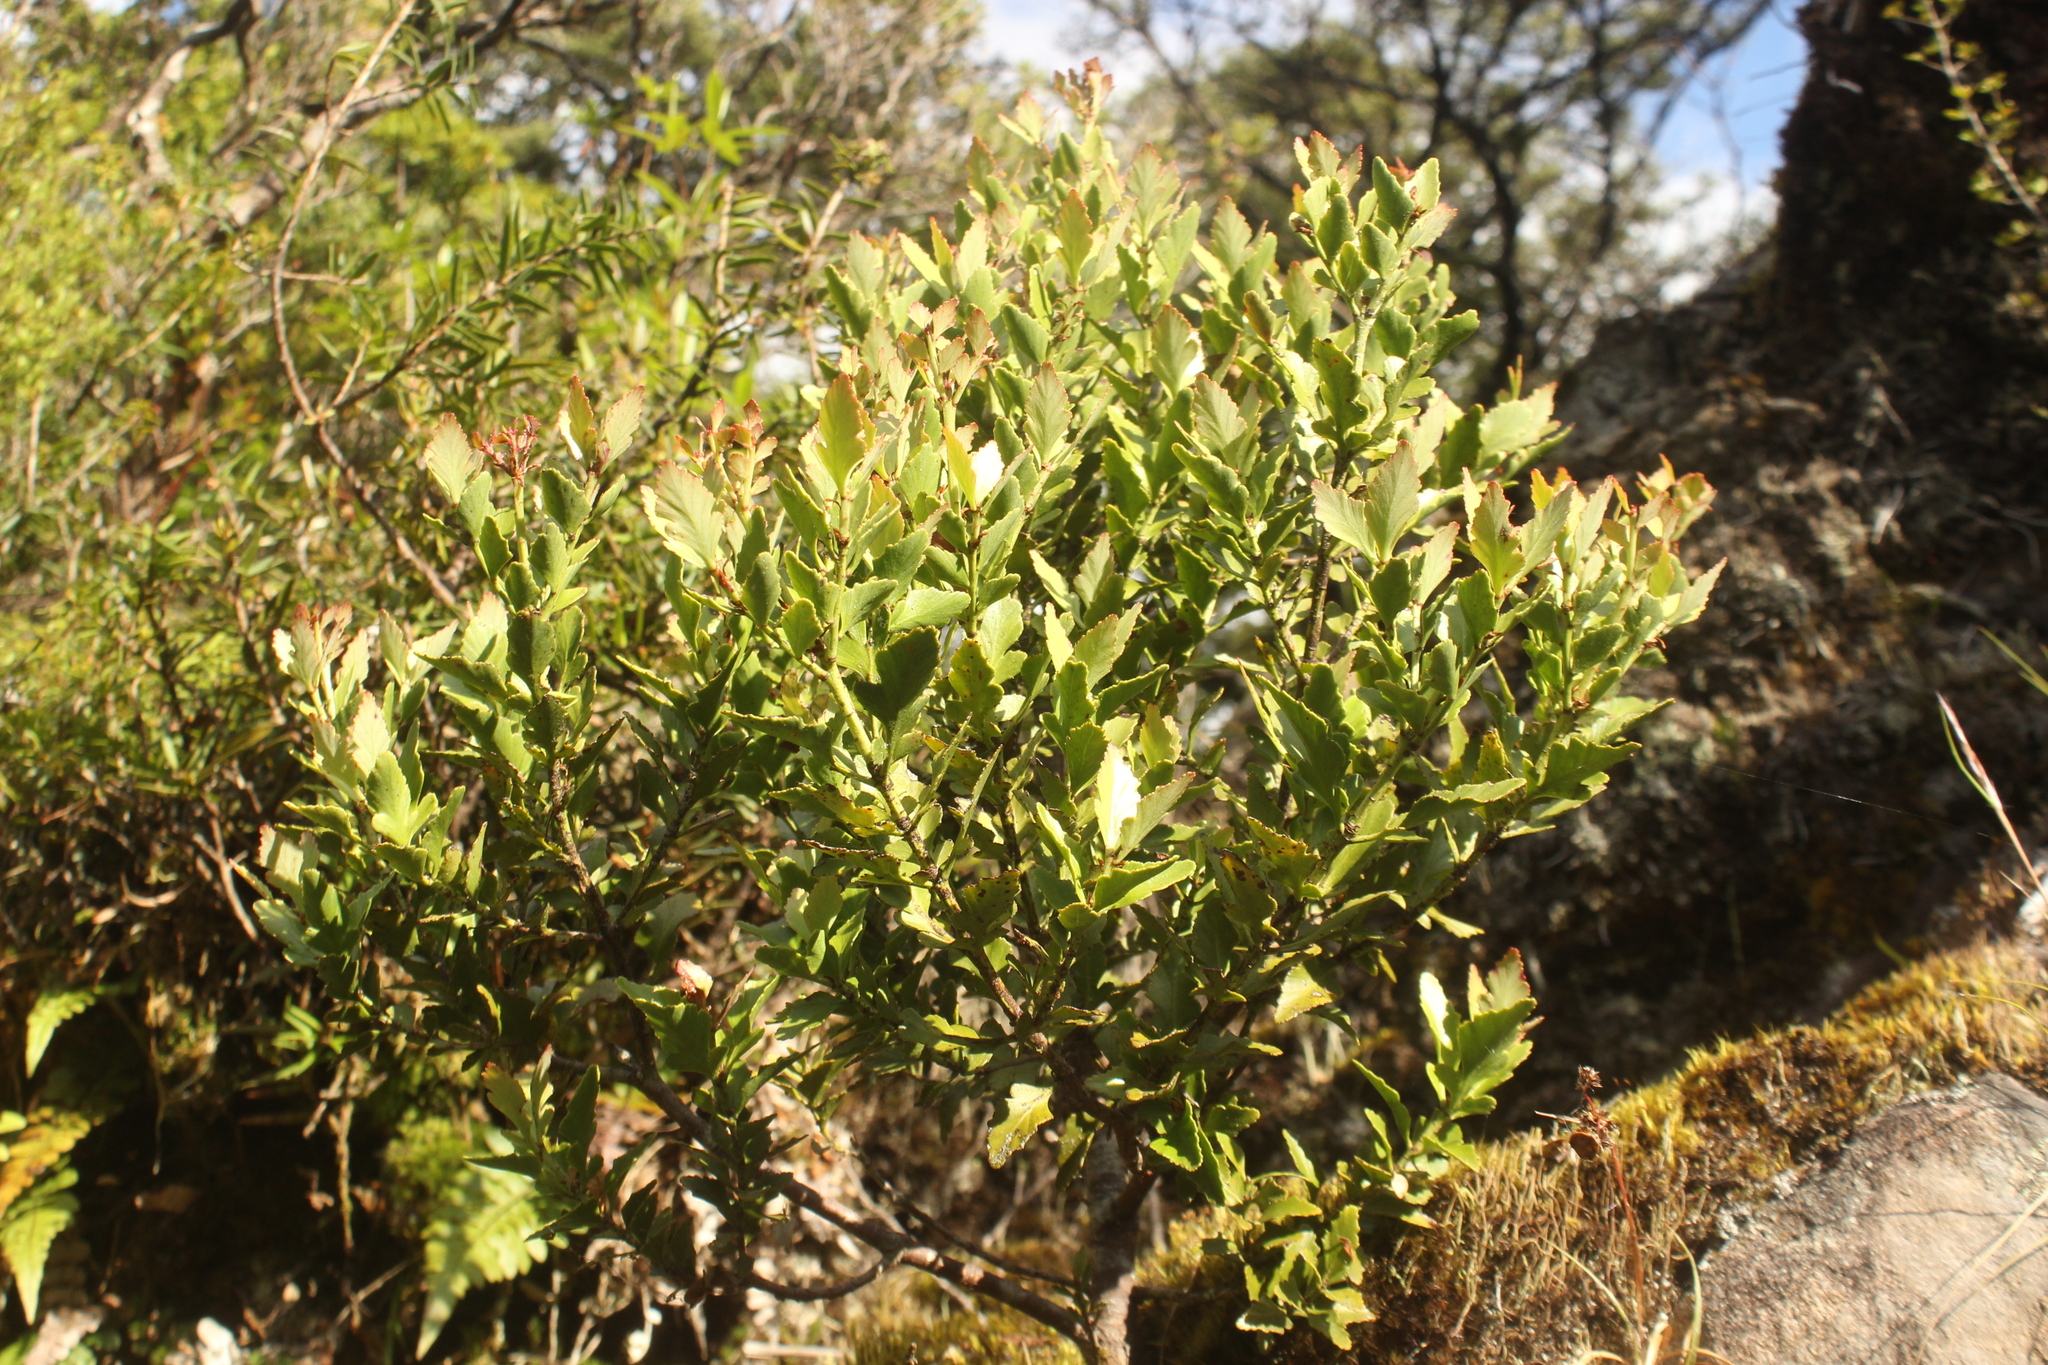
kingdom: Plantae
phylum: Tracheophyta
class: Pinopsida
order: Pinales
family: Phyllocladaceae
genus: Phyllocladus
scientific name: Phyllocladus trichomanoides
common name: Celery pine
